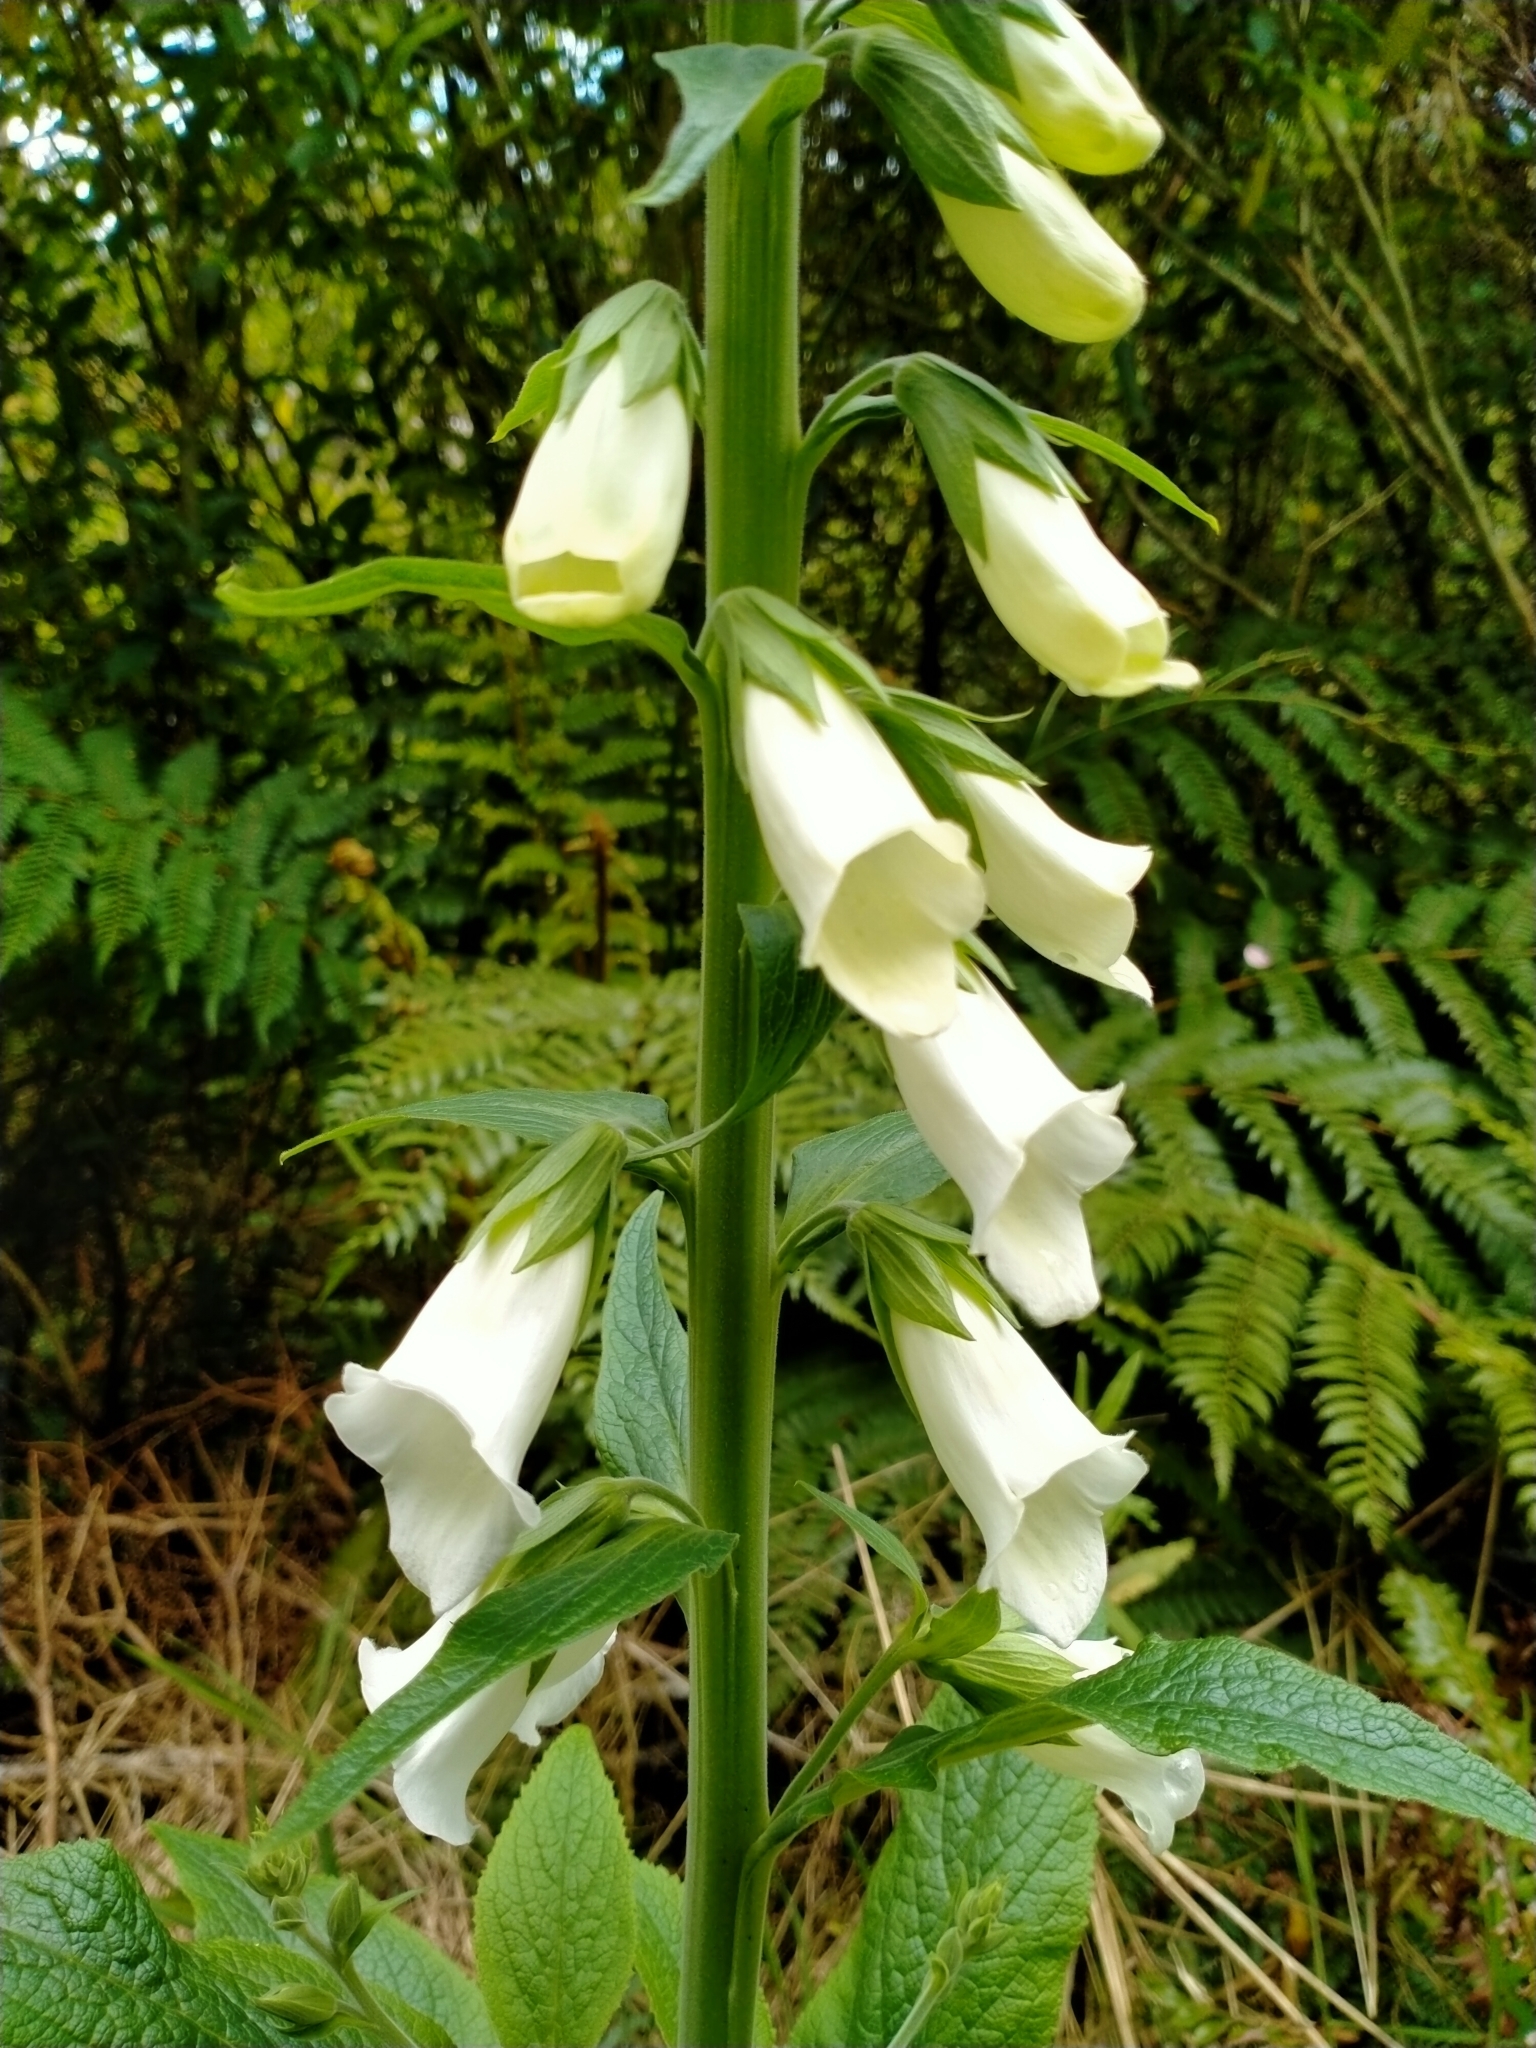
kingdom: Plantae
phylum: Tracheophyta
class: Magnoliopsida
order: Lamiales
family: Plantaginaceae
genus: Digitalis
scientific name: Digitalis purpurea
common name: Foxglove
